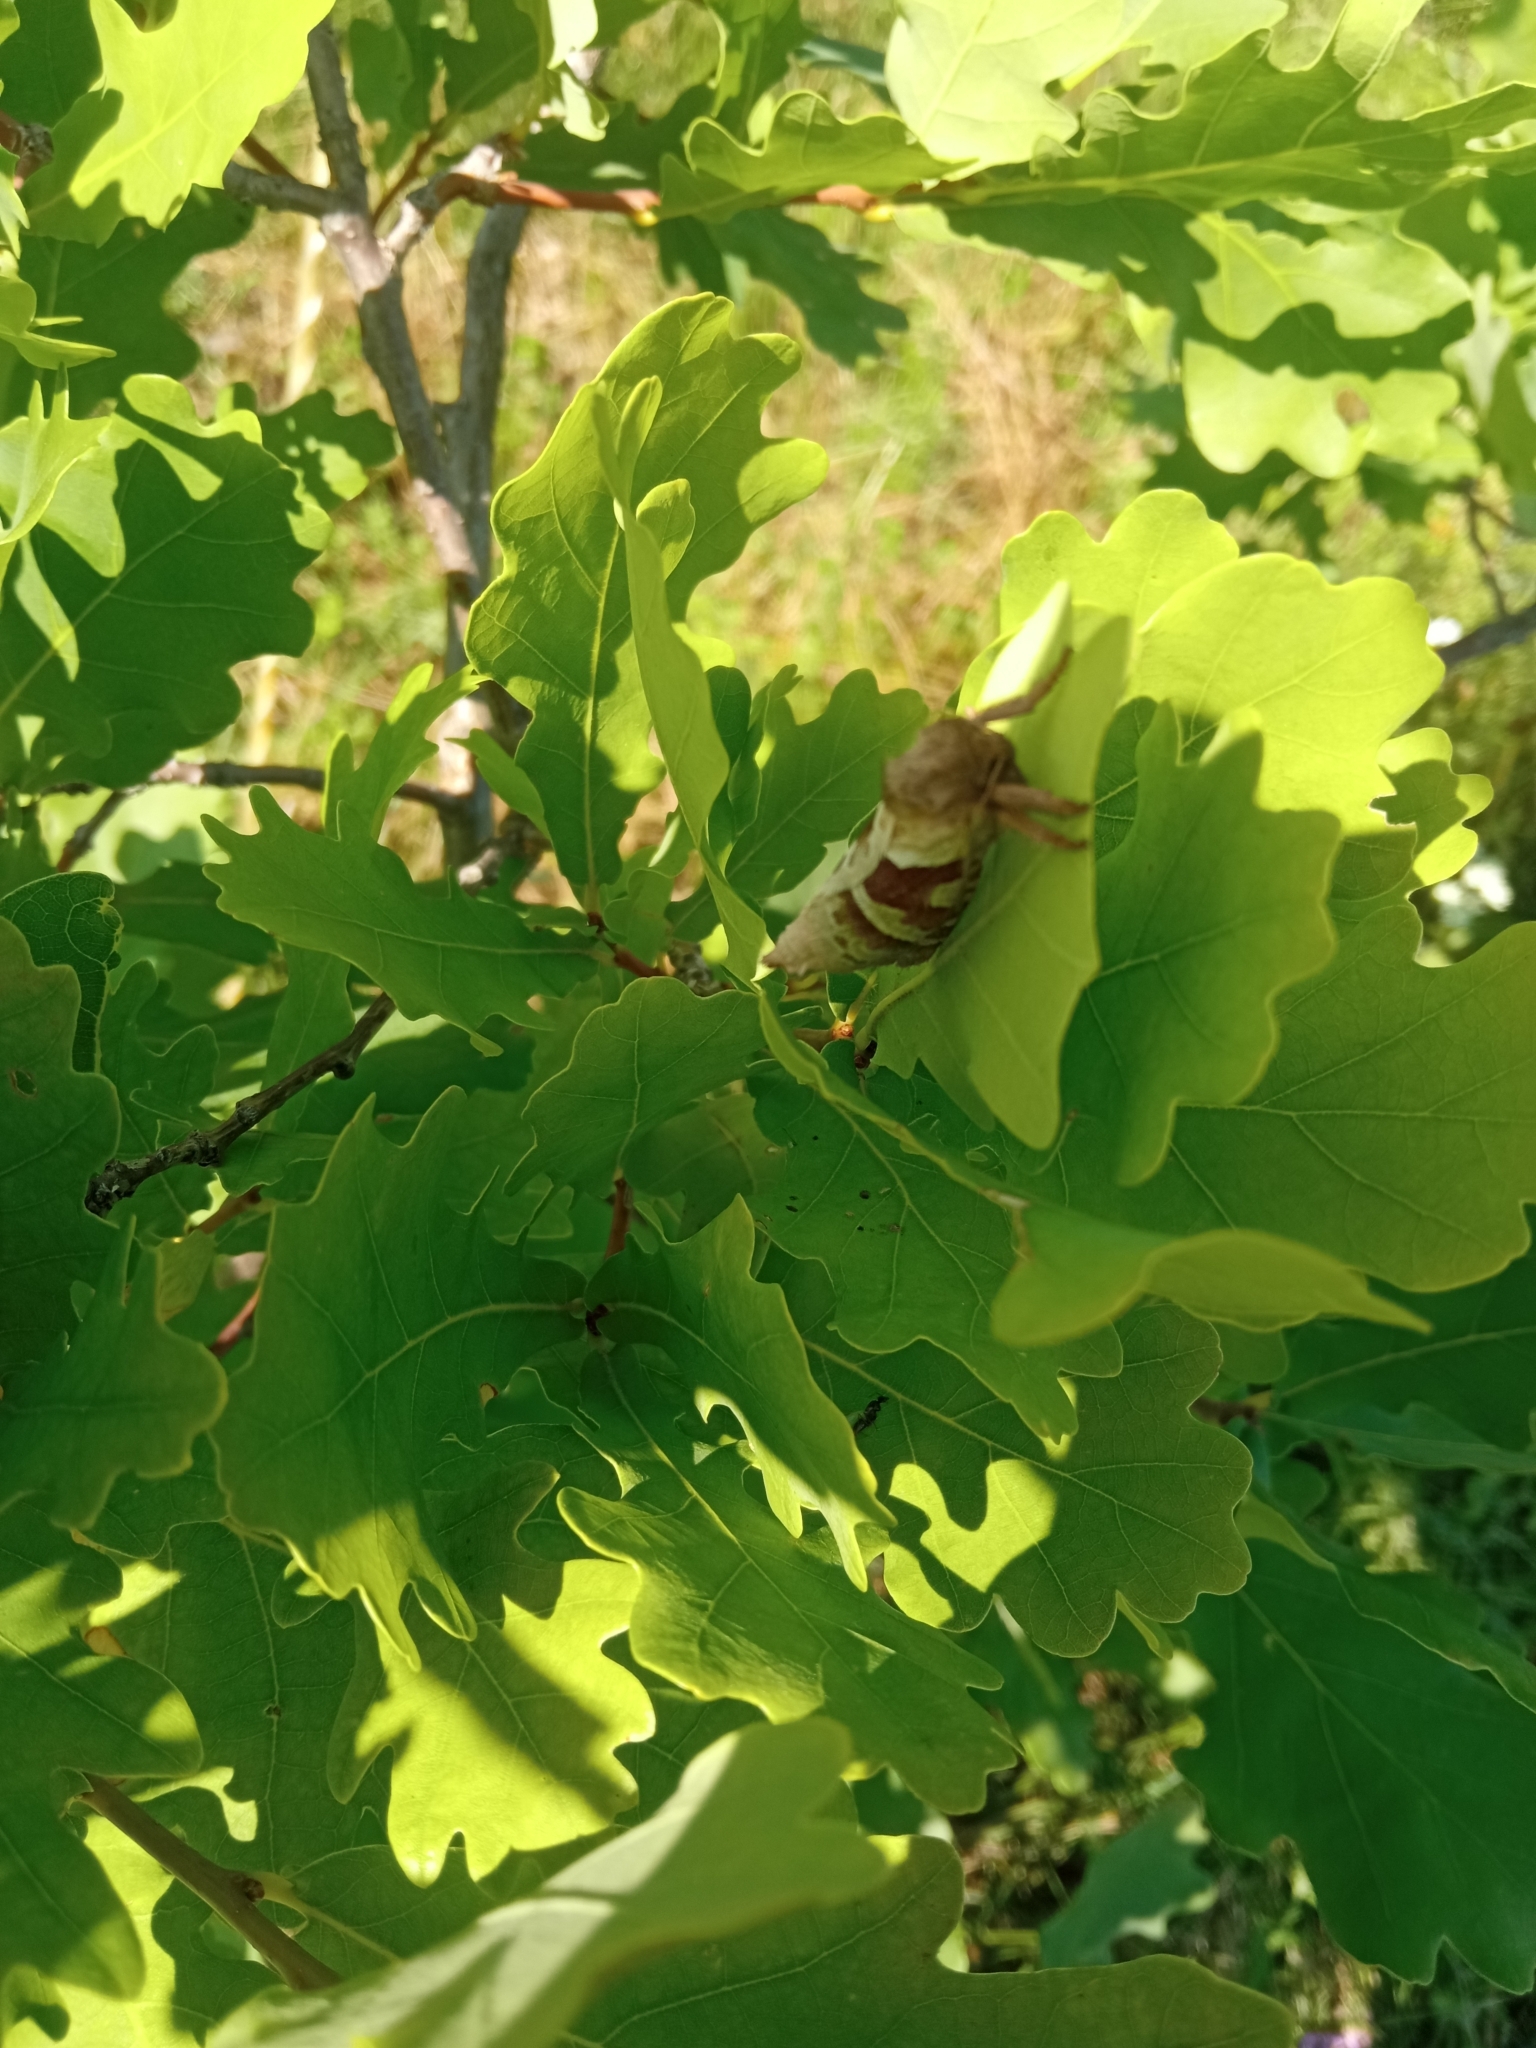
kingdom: Animalia
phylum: Arthropoda
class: Insecta
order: Lepidoptera
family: Hepialidae
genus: Triodia
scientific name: Triodia sylvina
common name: Orange swift
